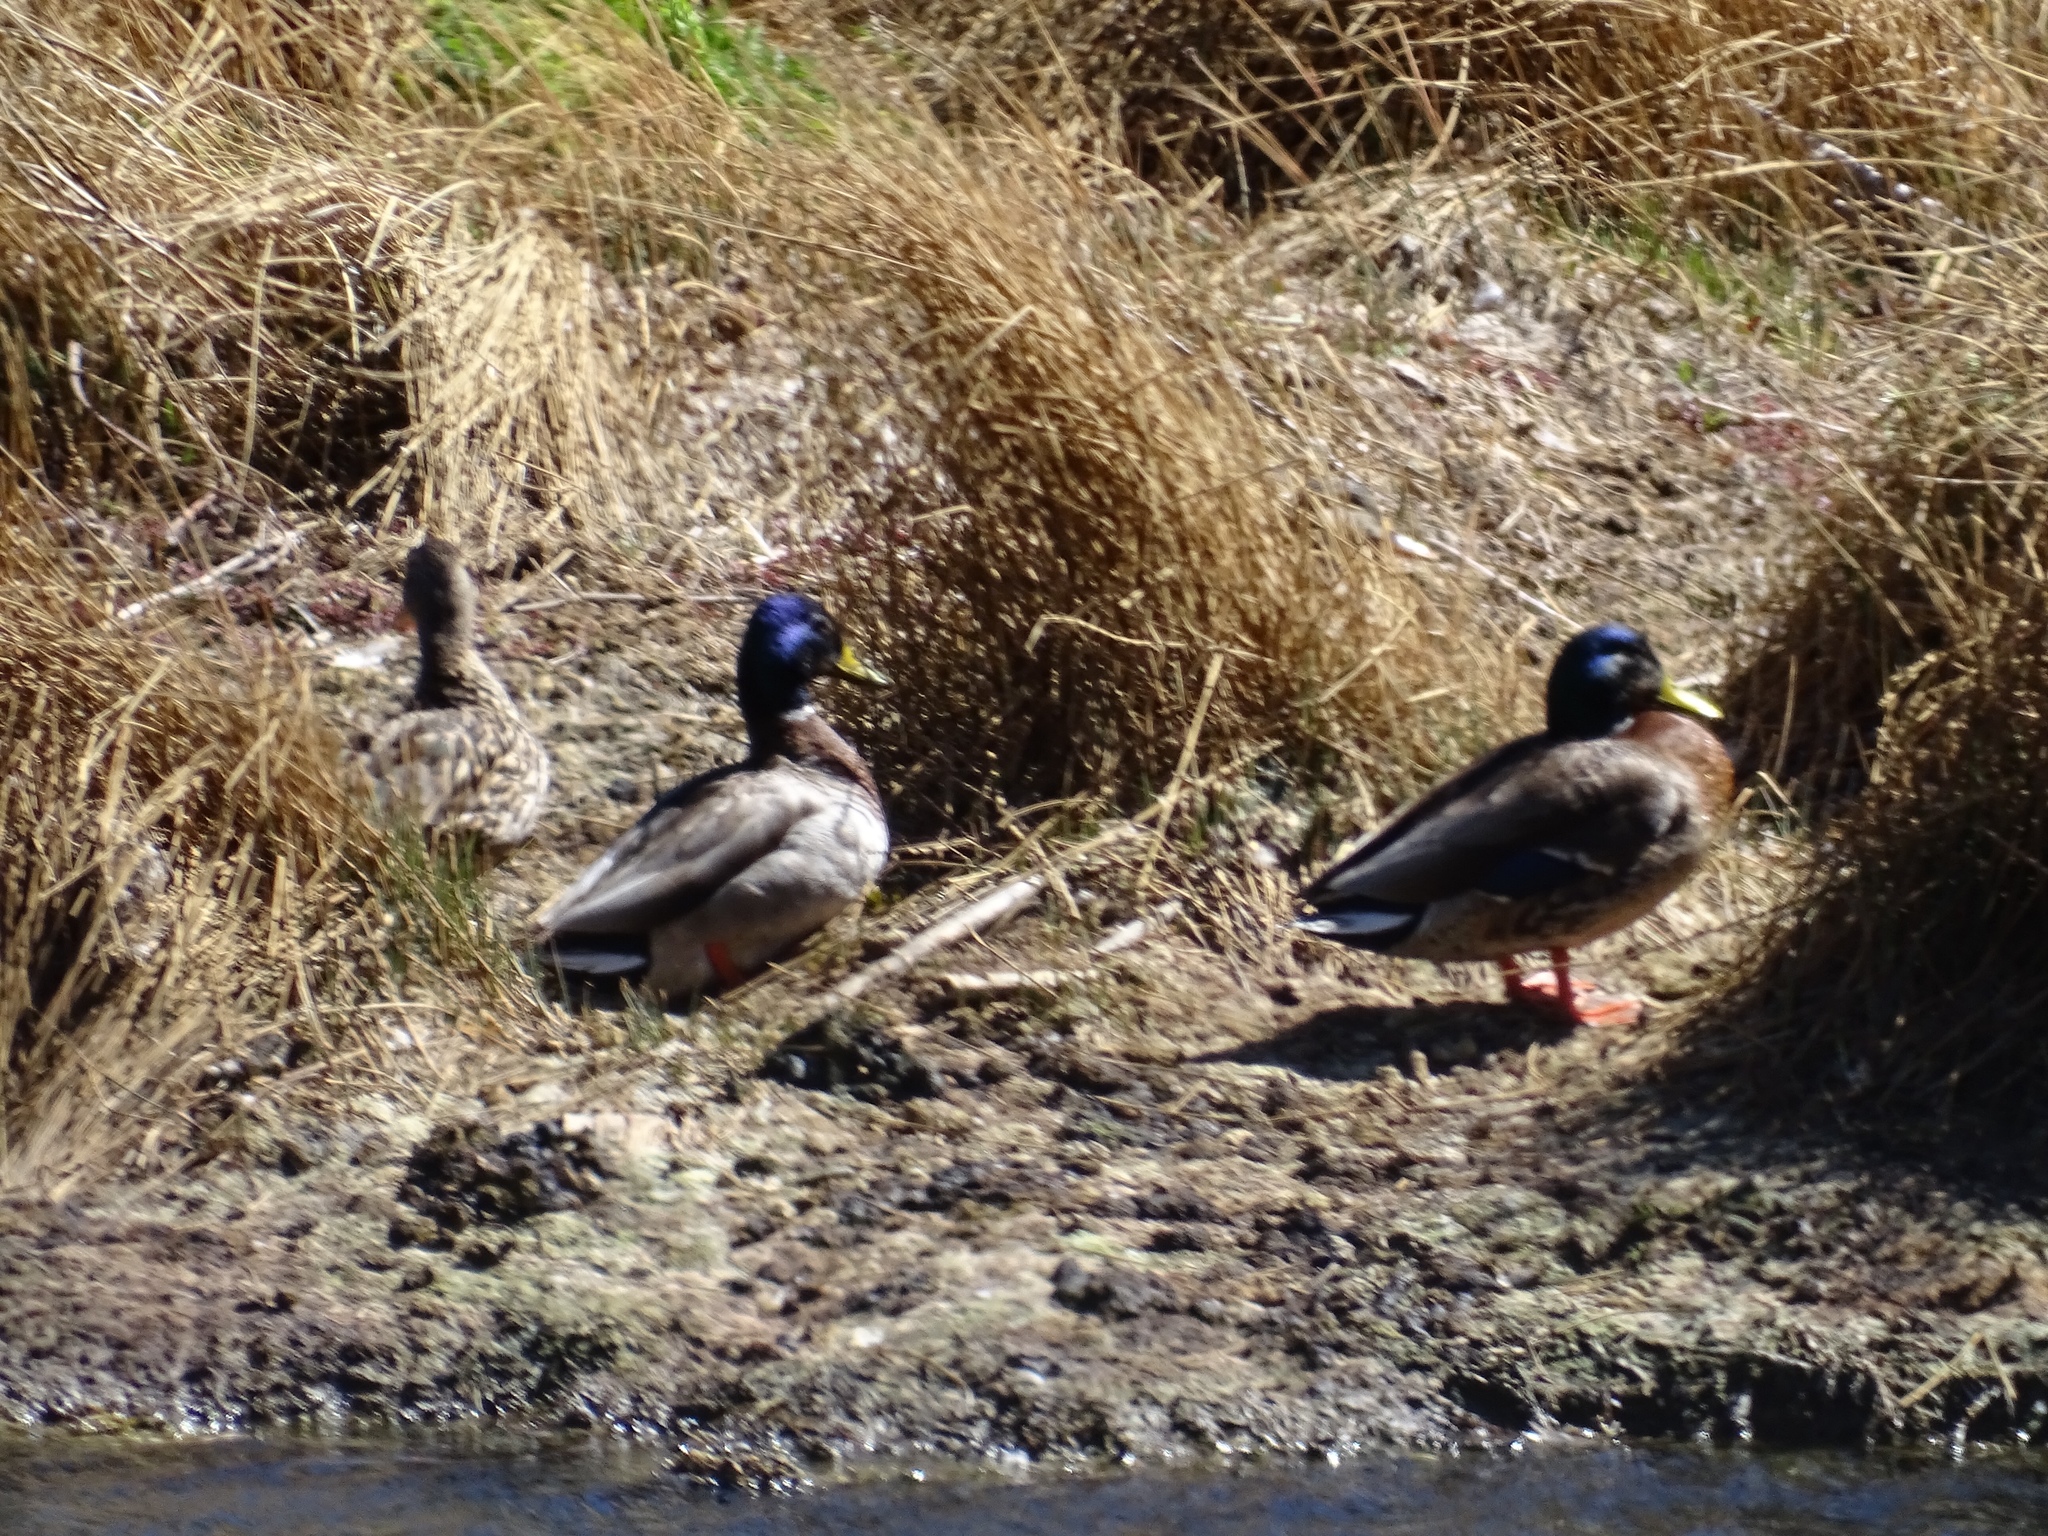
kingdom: Animalia
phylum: Chordata
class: Aves
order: Anseriformes
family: Anatidae
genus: Anas
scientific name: Anas platyrhynchos
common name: Mallard
